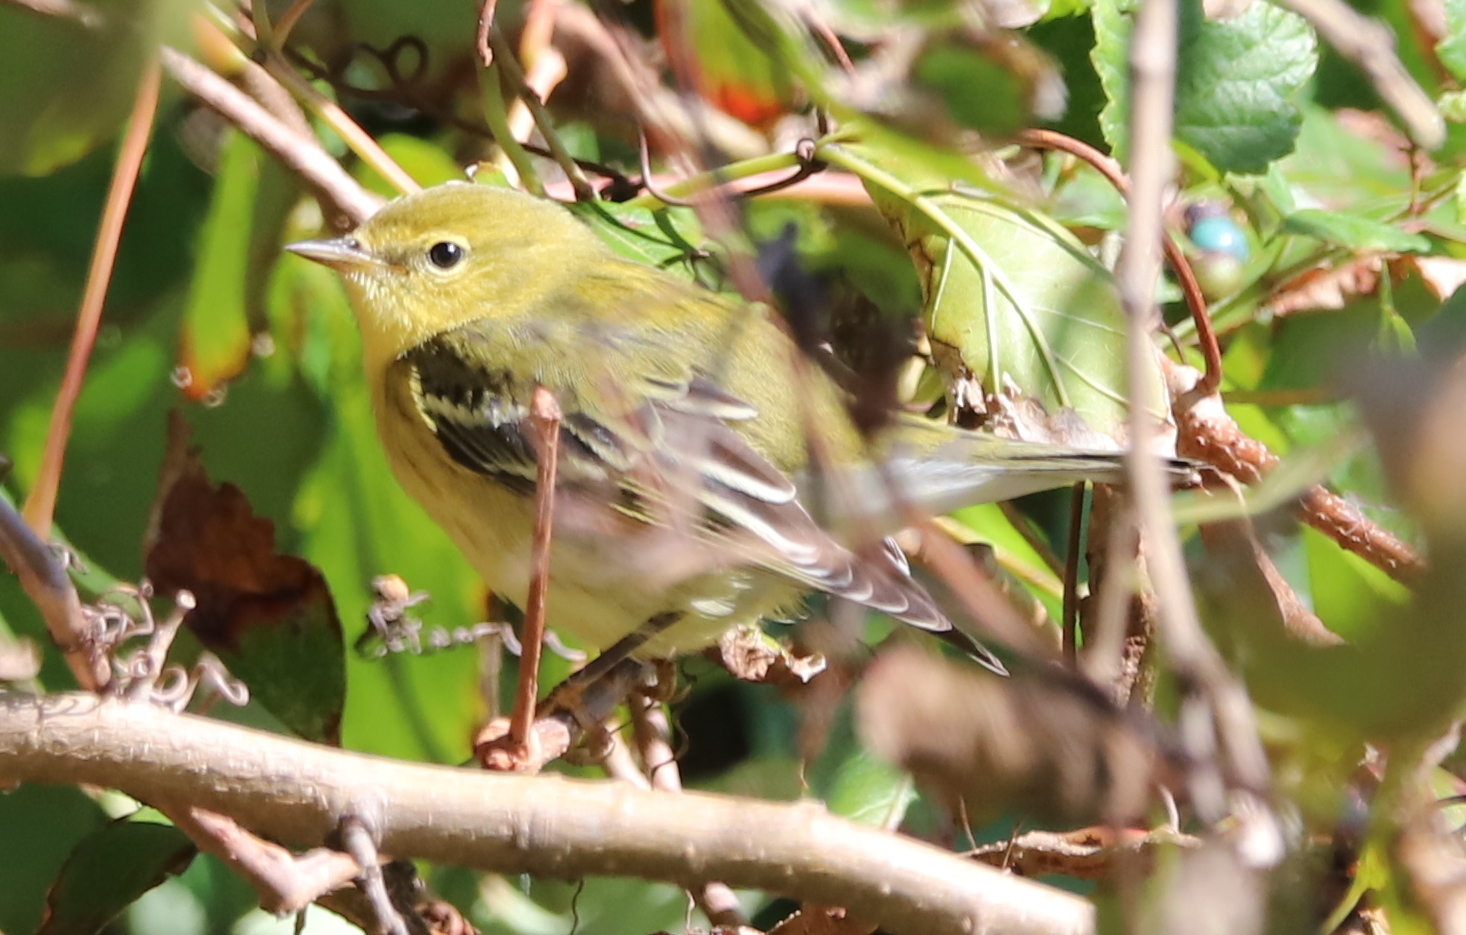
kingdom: Animalia
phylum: Chordata
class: Aves
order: Passeriformes
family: Parulidae
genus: Setophaga
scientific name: Setophaga striata
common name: Blackpoll warbler
